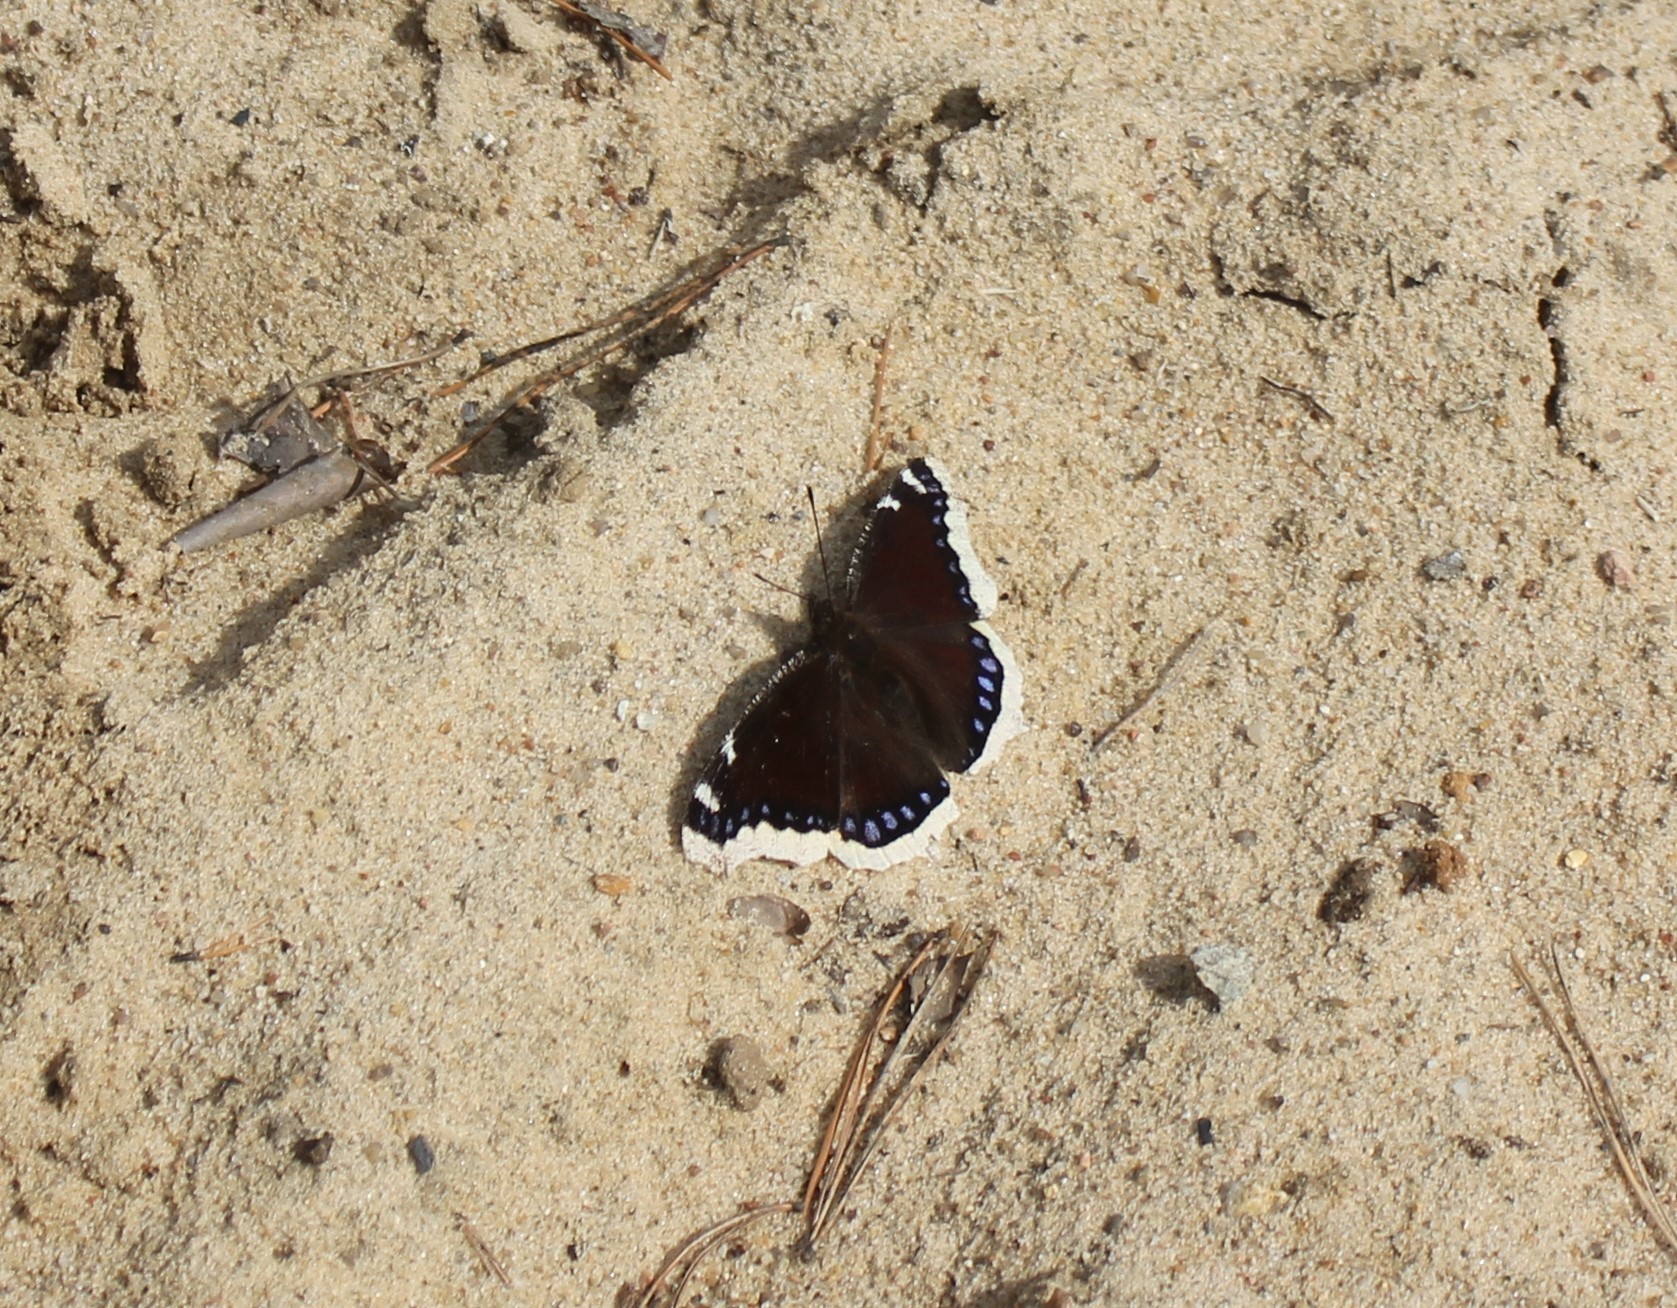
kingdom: Animalia
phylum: Arthropoda
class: Insecta
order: Lepidoptera
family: Nymphalidae
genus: Nymphalis
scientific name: Nymphalis antiopa
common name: Camberwell beauty
